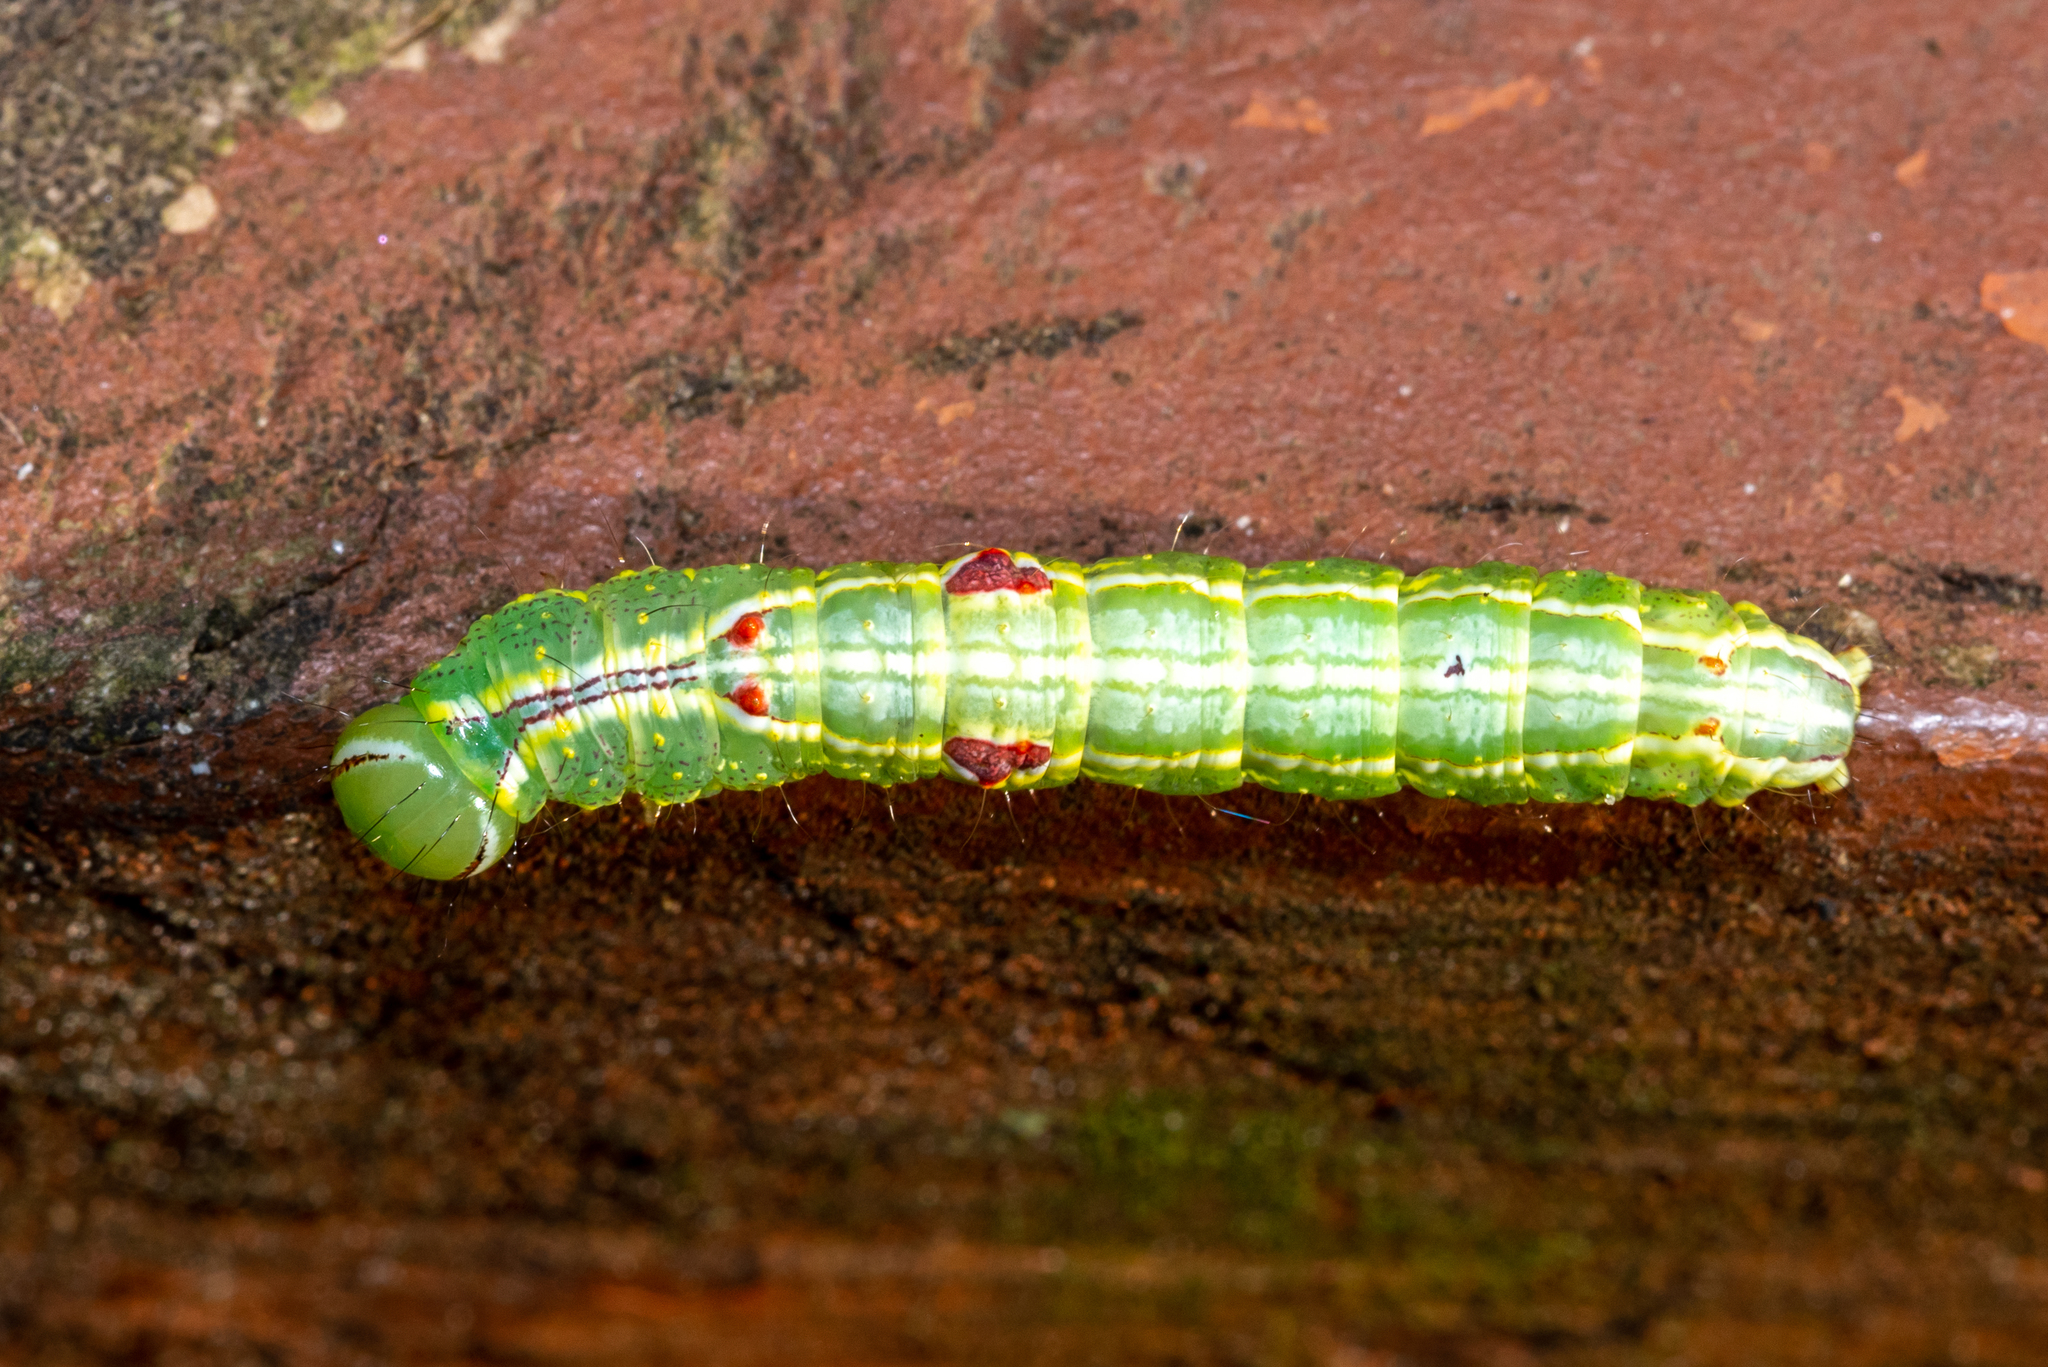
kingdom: Animalia
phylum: Arthropoda
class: Insecta
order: Lepidoptera
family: Notodontidae
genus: Lochmaeus
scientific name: Lochmaeus manteo
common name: Variable oakleaf caterpillar moth
